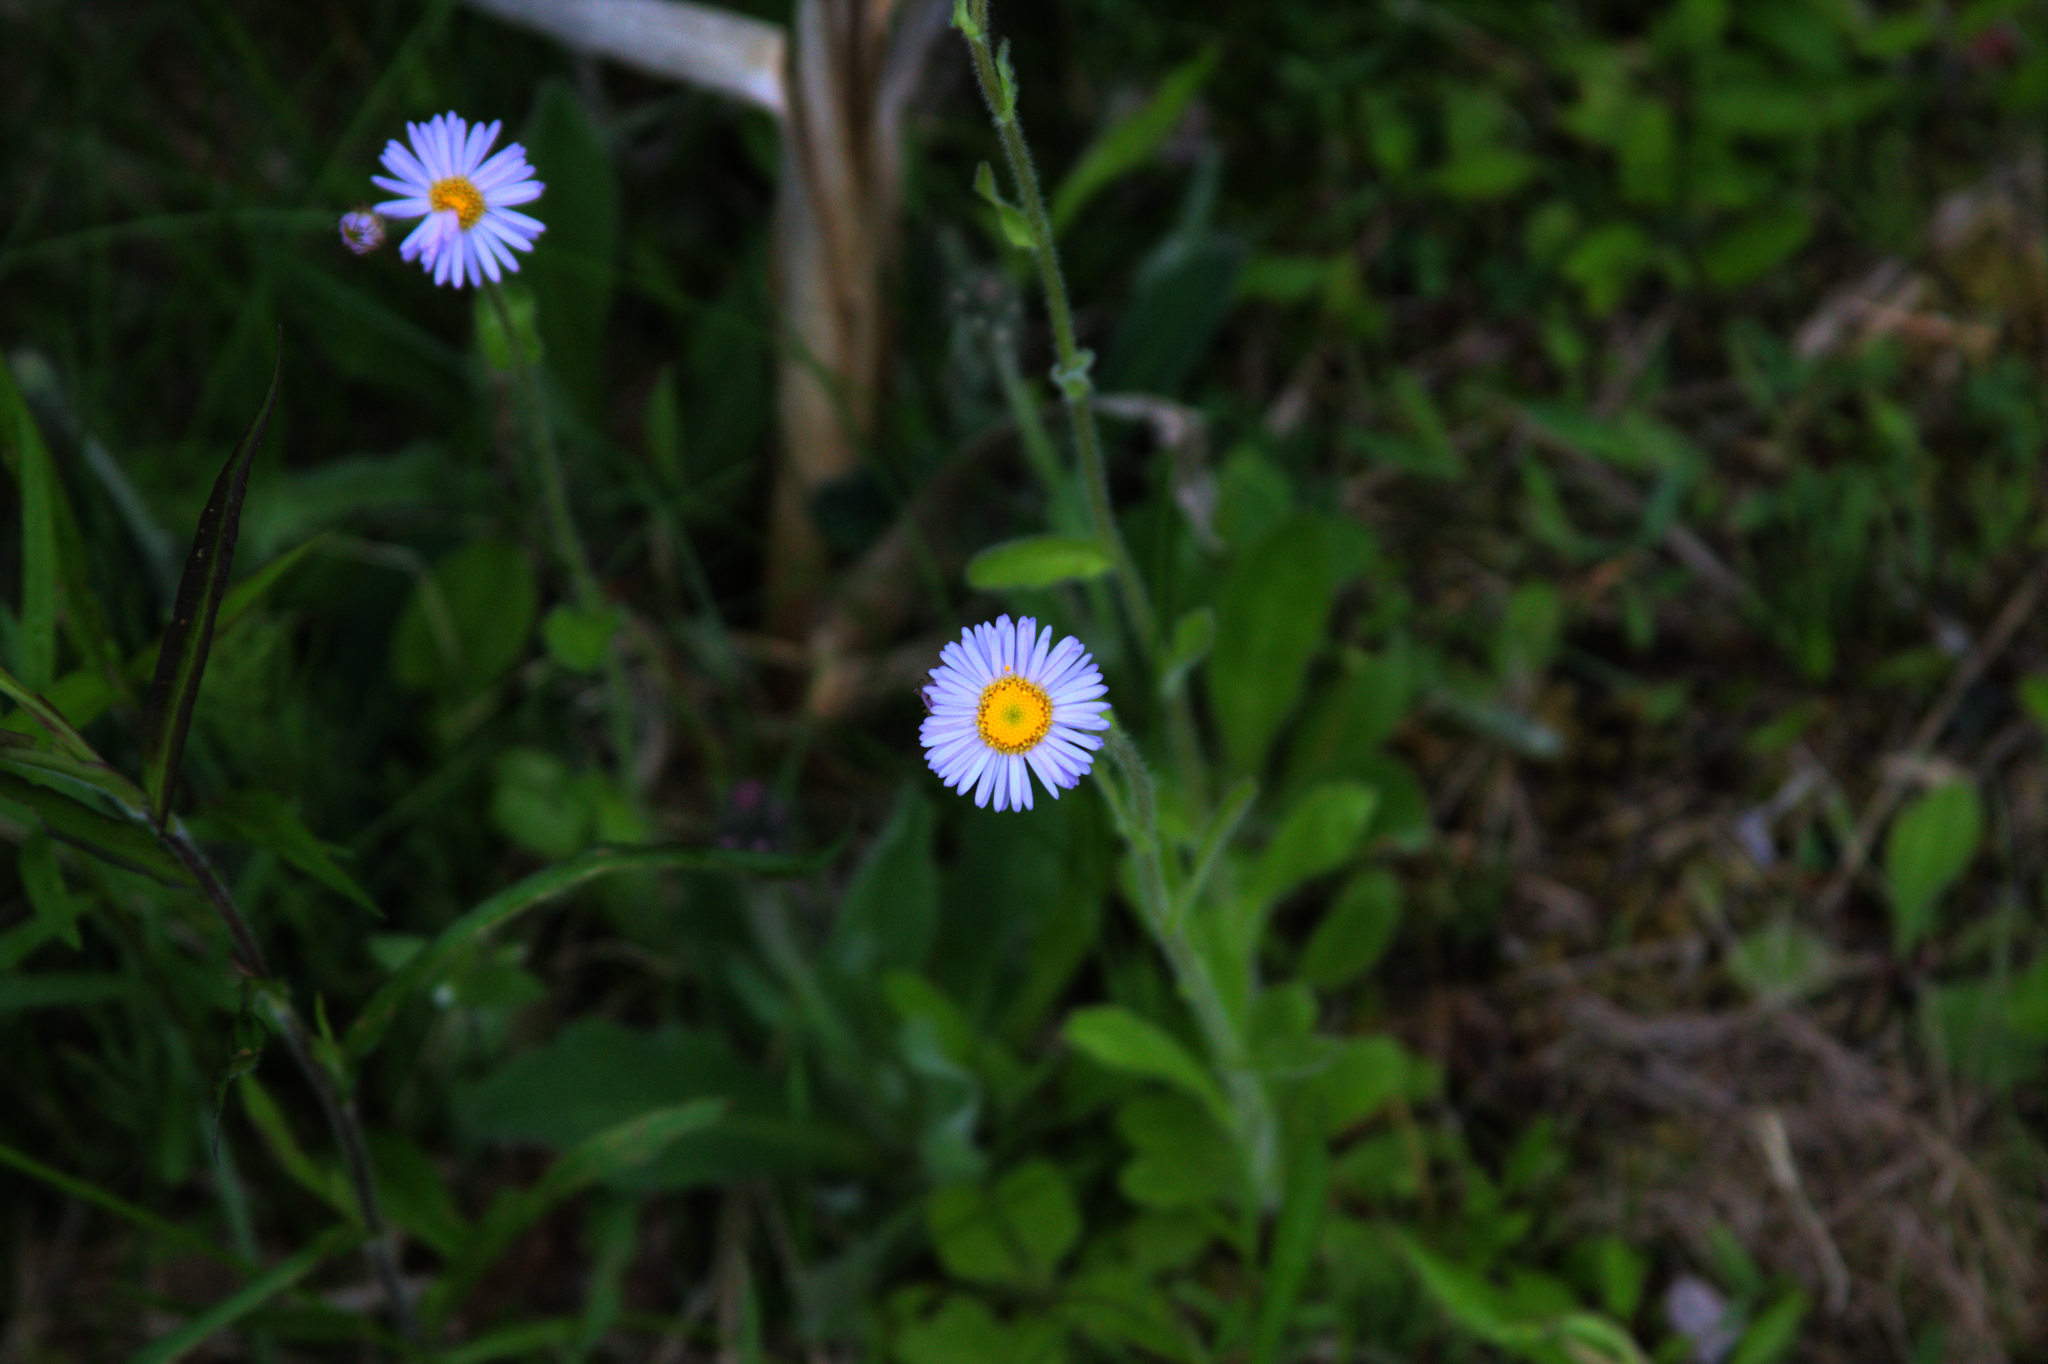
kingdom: Plantae
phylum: Tracheophyta
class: Magnoliopsida
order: Asterales
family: Asteraceae
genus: Erigeron
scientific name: Erigeron pulchellus
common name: Hairy fleabane
